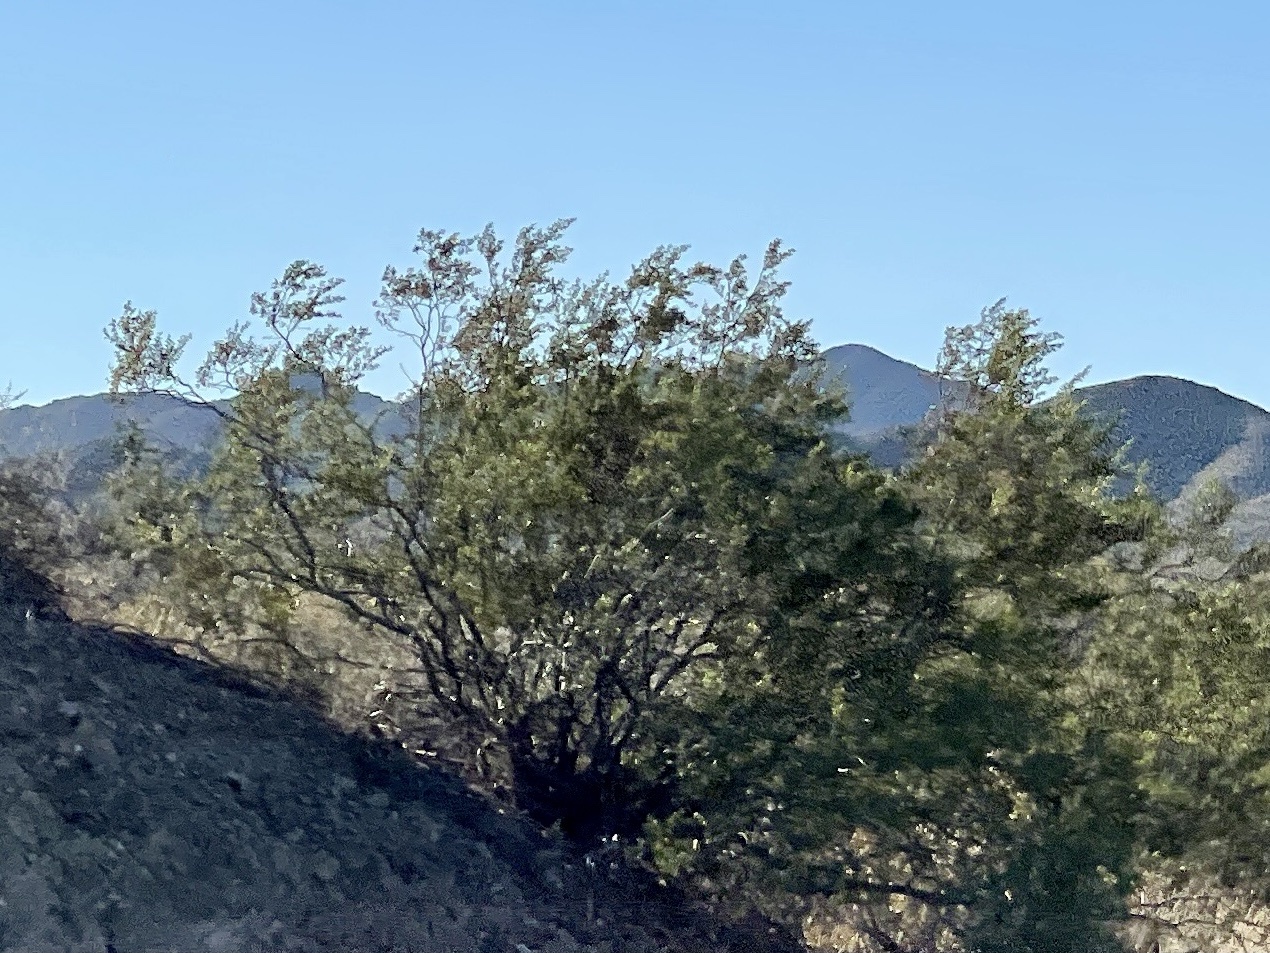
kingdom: Plantae
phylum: Tracheophyta
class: Magnoliopsida
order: Zygophyllales
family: Zygophyllaceae
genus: Larrea
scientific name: Larrea tridentata
